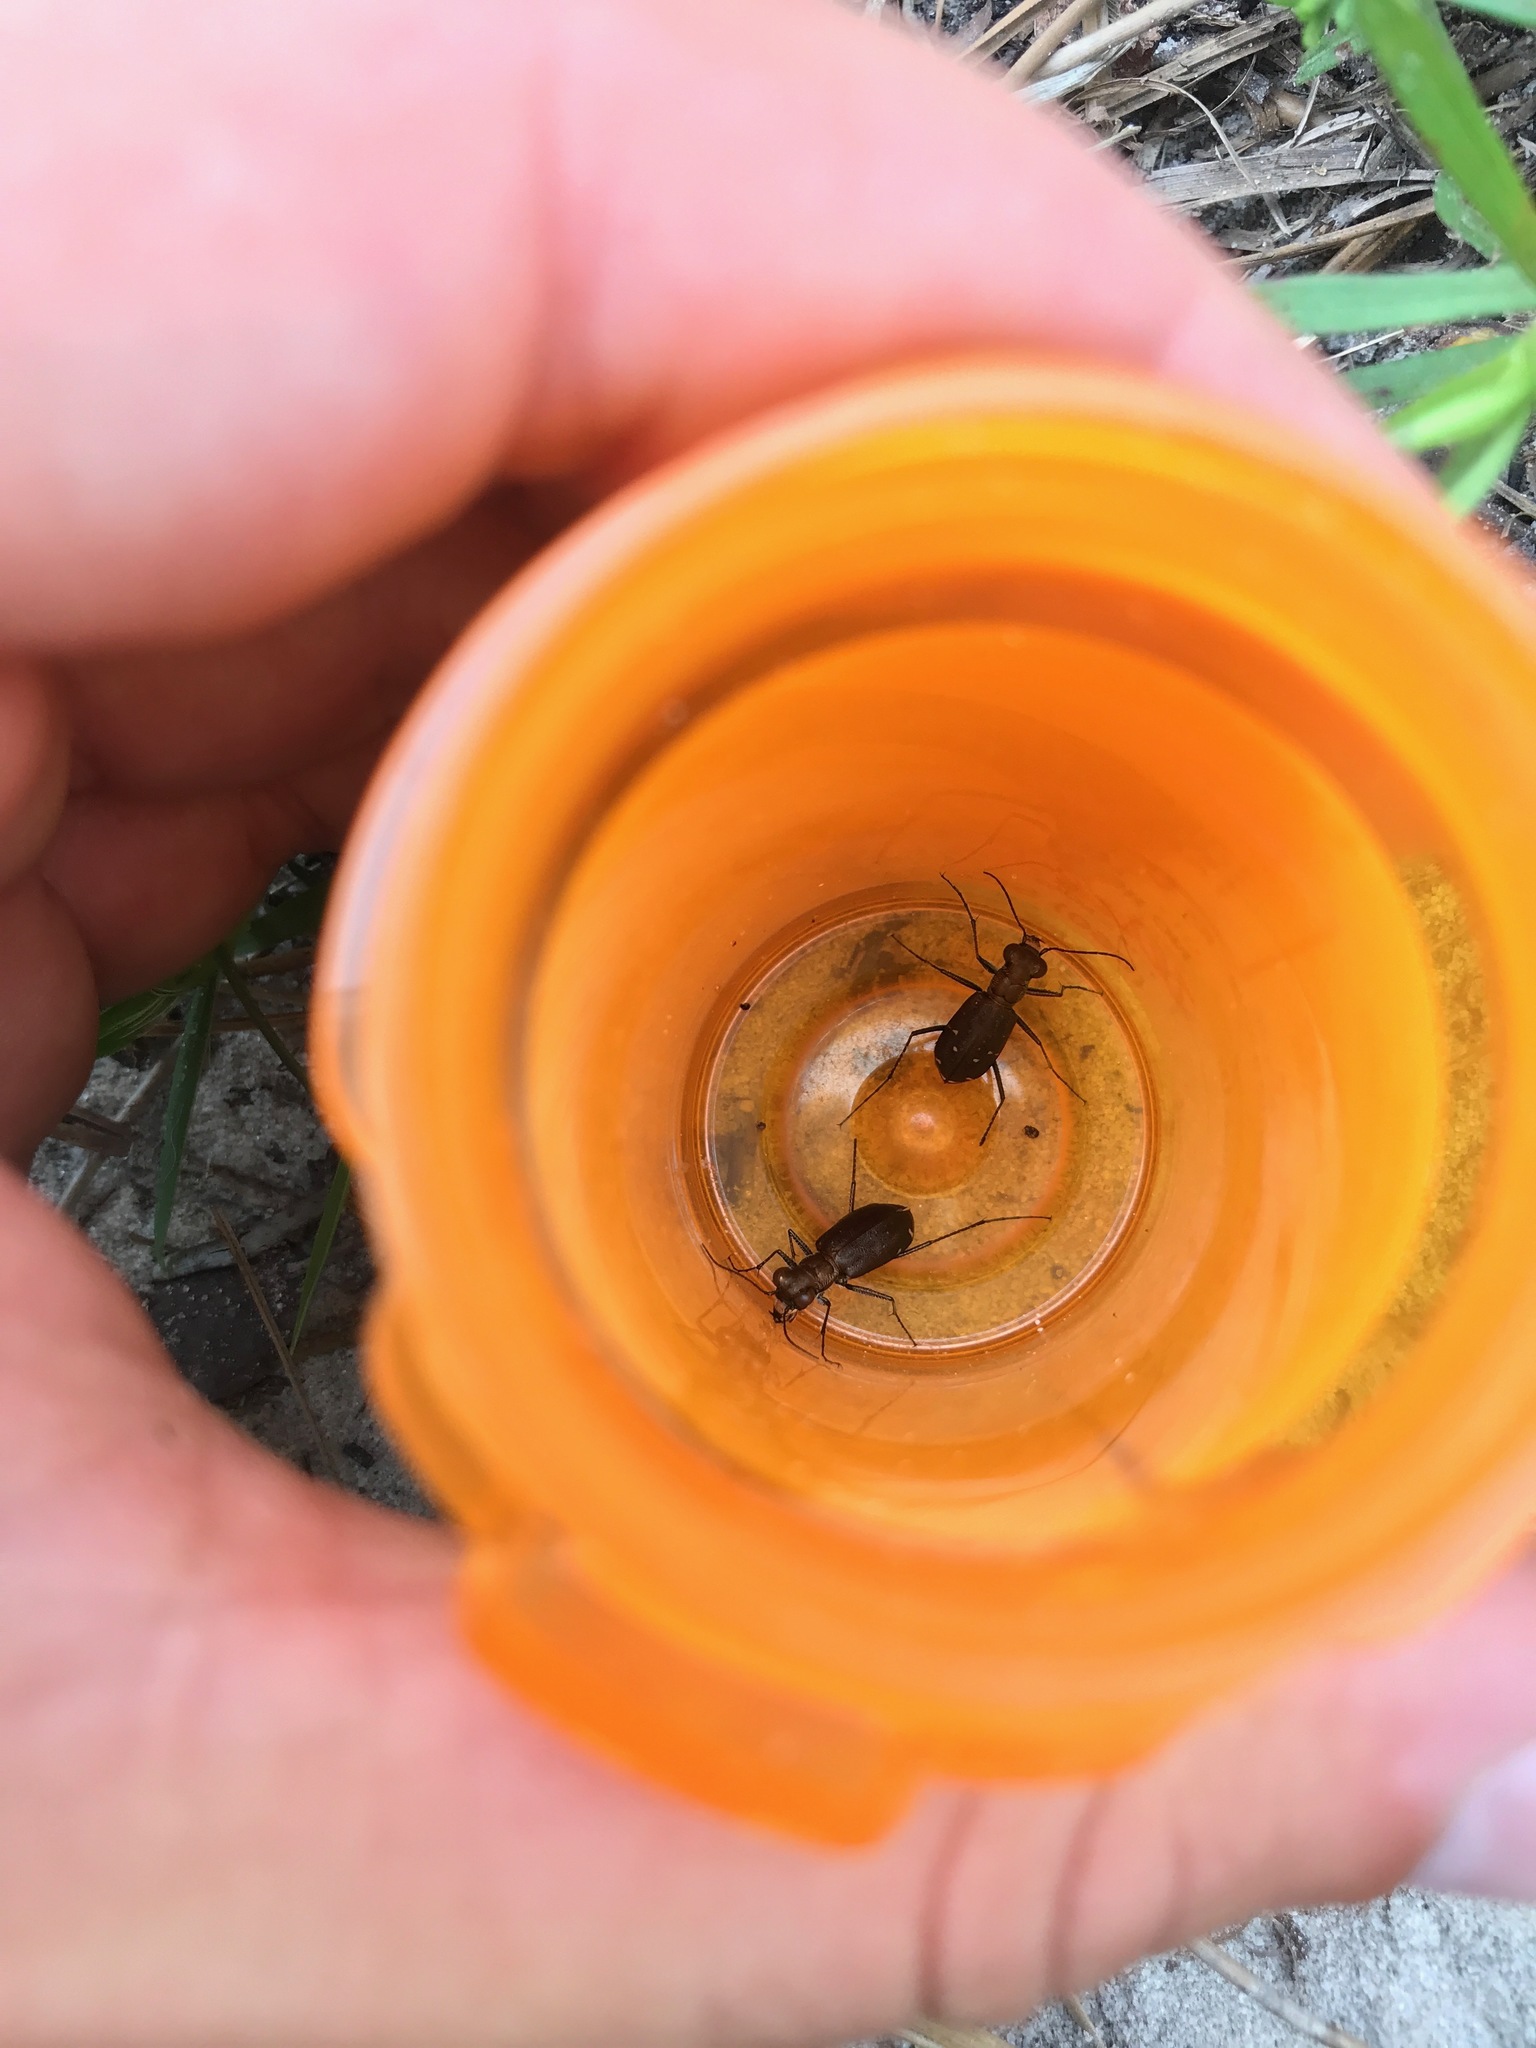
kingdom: Animalia
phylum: Arthropoda
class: Insecta
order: Coleoptera
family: Carabidae
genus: Cicindela
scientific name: Cicindela punctulata
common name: Punctured tiger beetle
